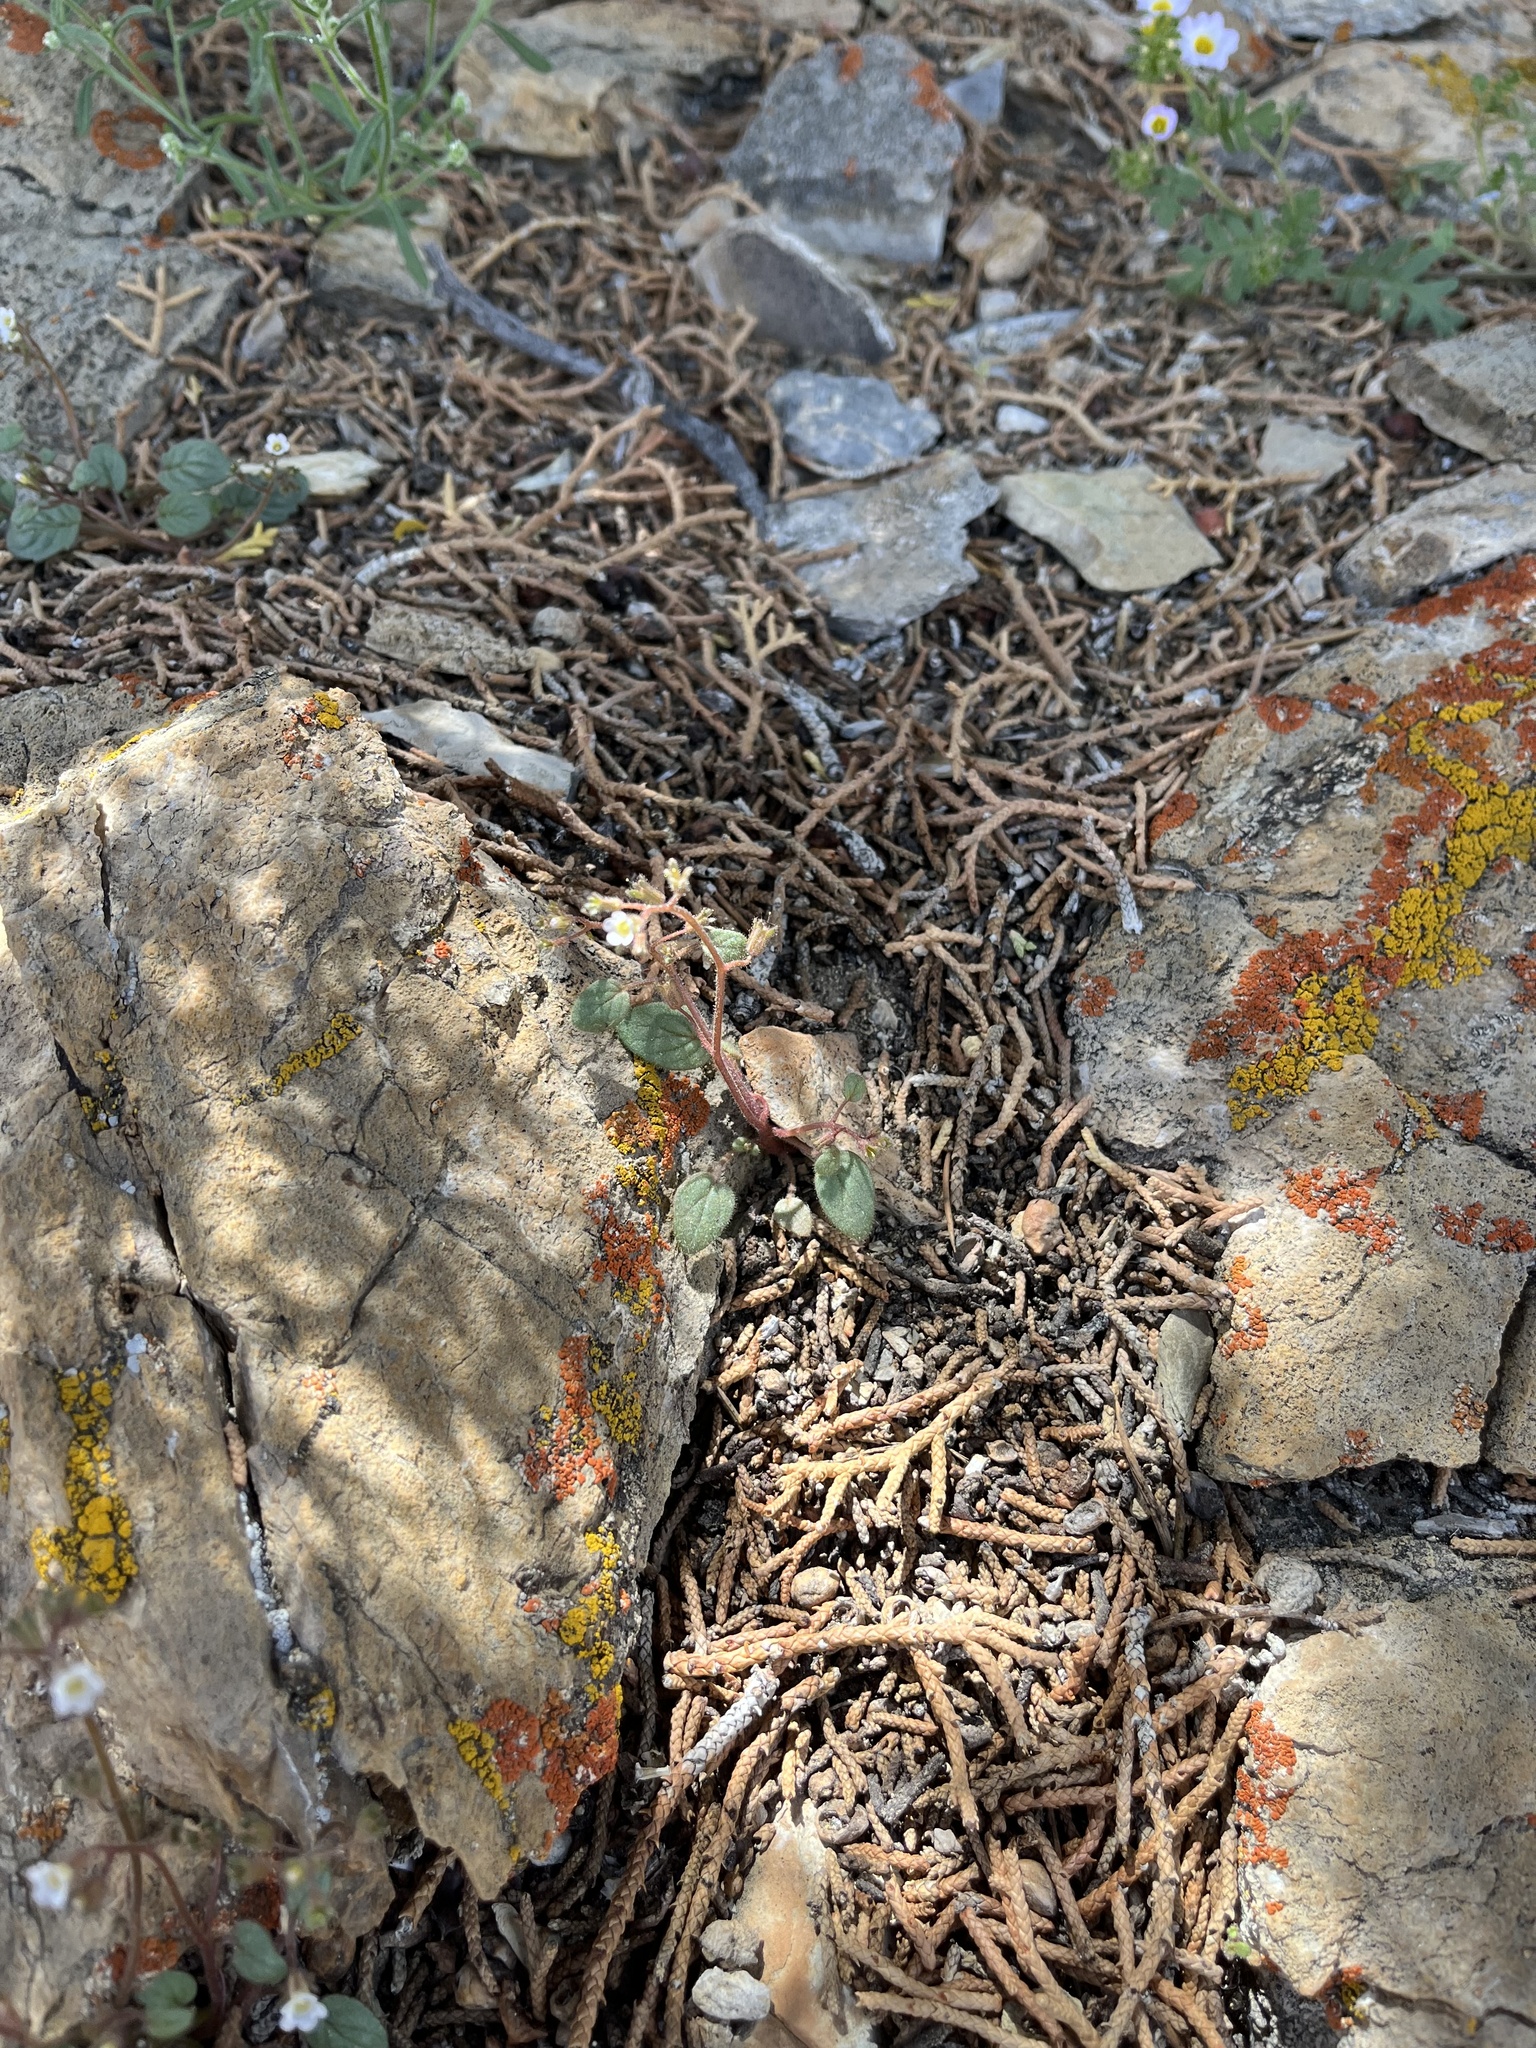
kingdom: Plantae
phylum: Tracheophyta
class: Magnoliopsida
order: Boraginales
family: Hydrophyllaceae
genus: Phacelia
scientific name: Phacelia barnebyana
